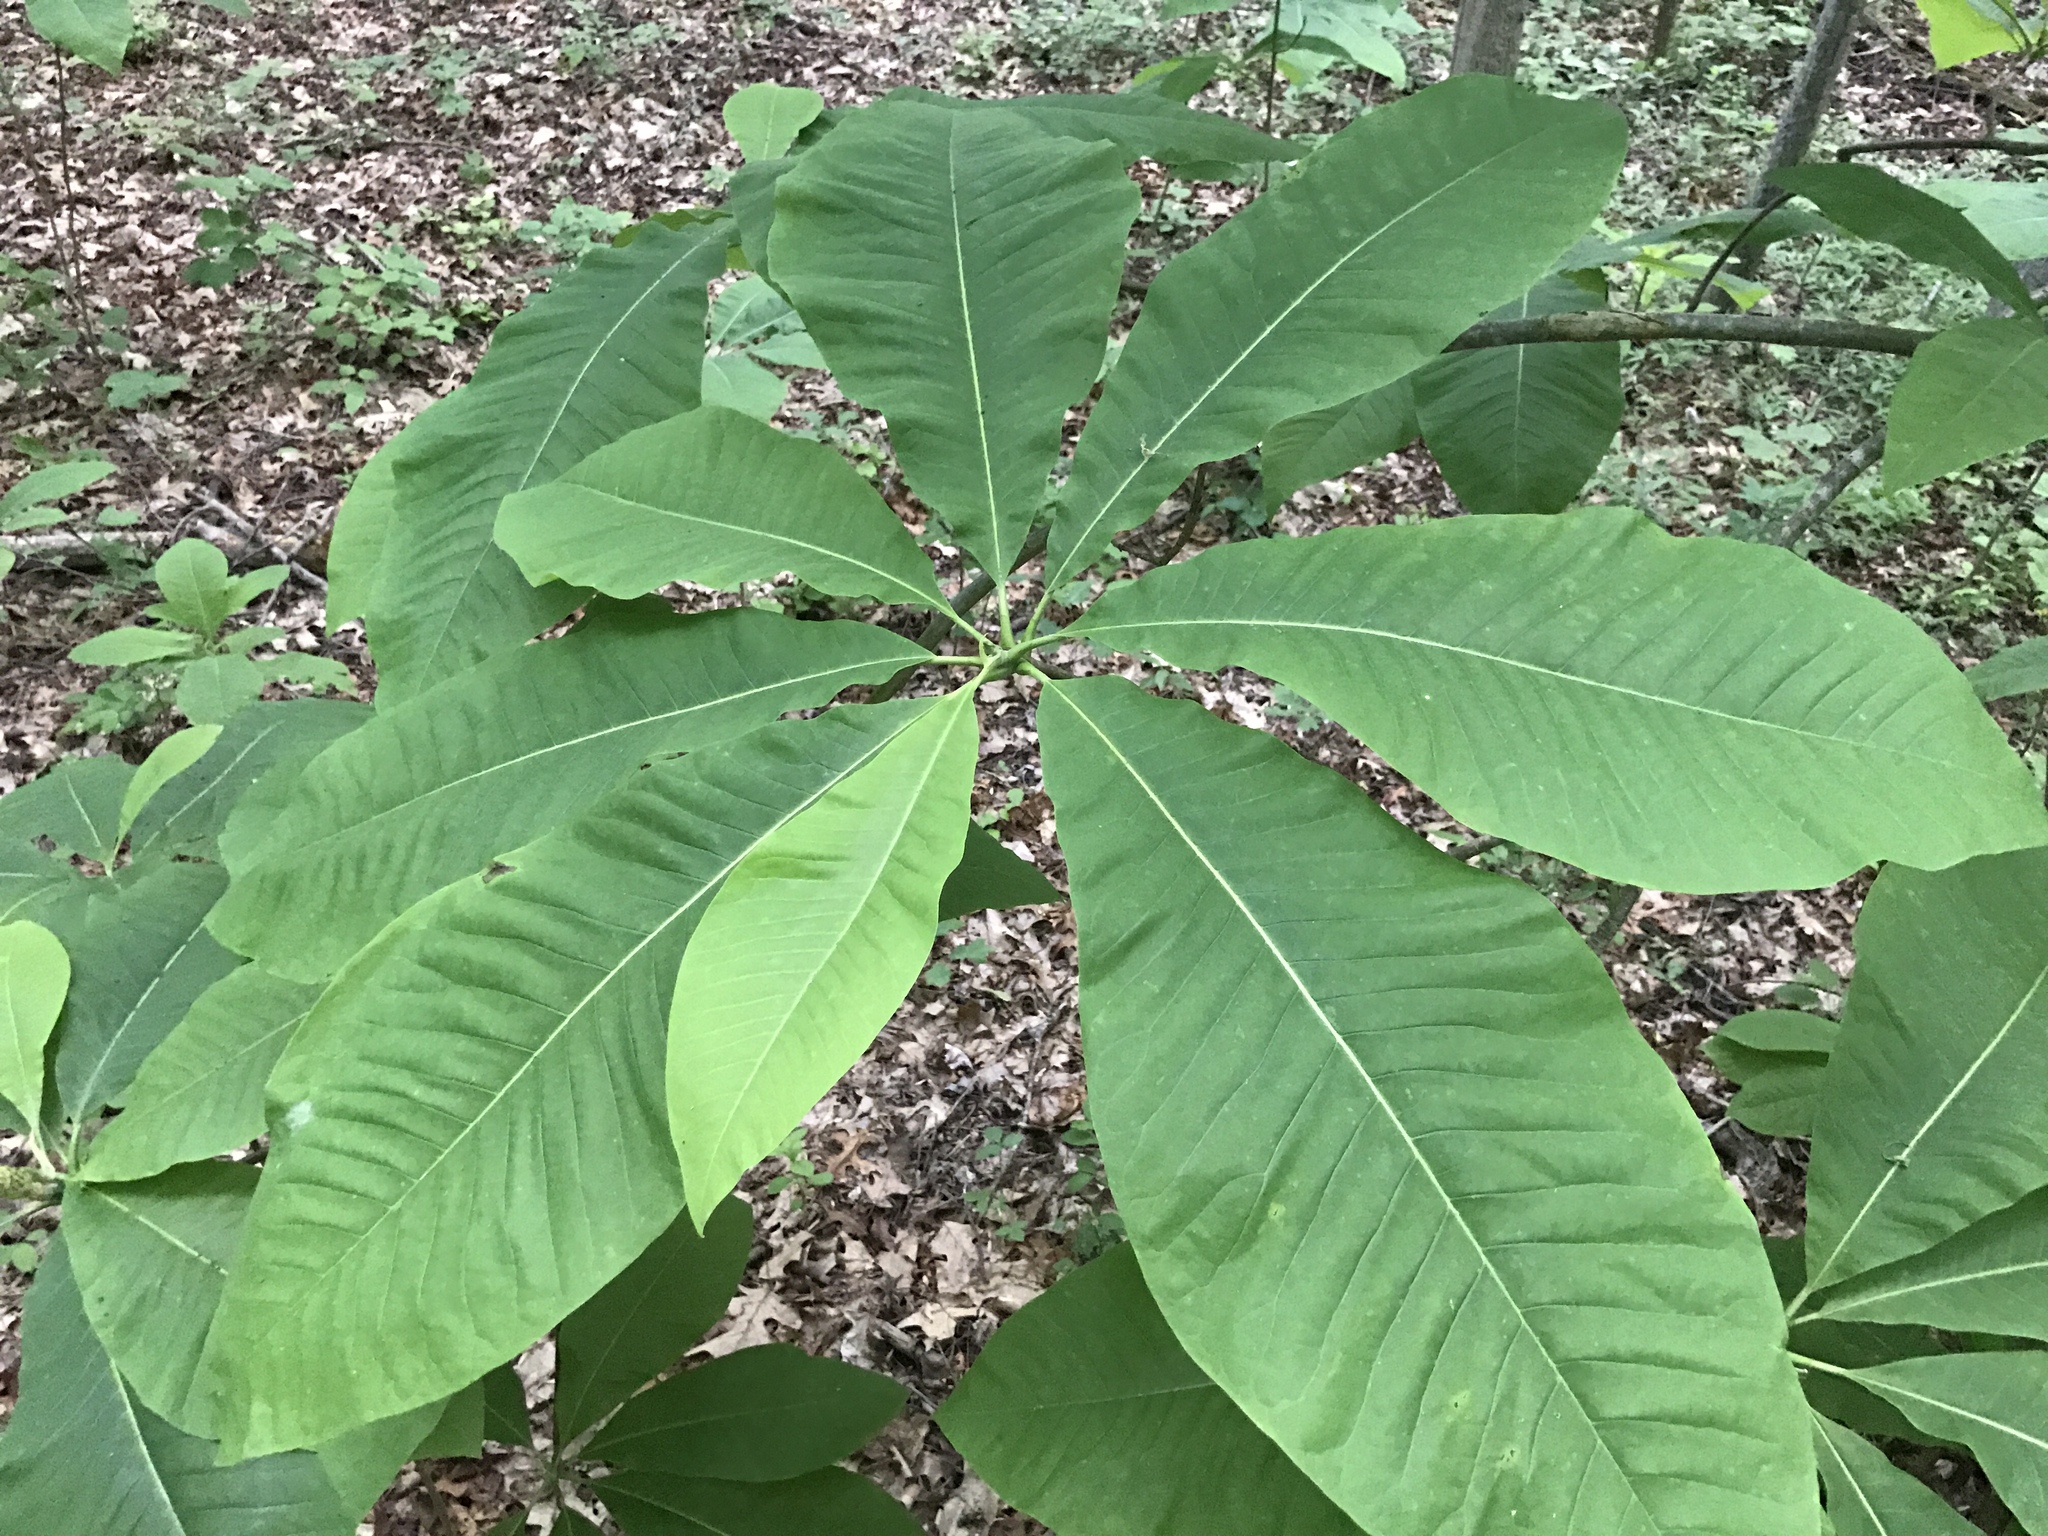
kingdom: Plantae
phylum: Tracheophyta
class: Magnoliopsida
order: Magnoliales
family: Magnoliaceae
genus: Magnolia
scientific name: Magnolia tripetala
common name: Umbrella magnolia
